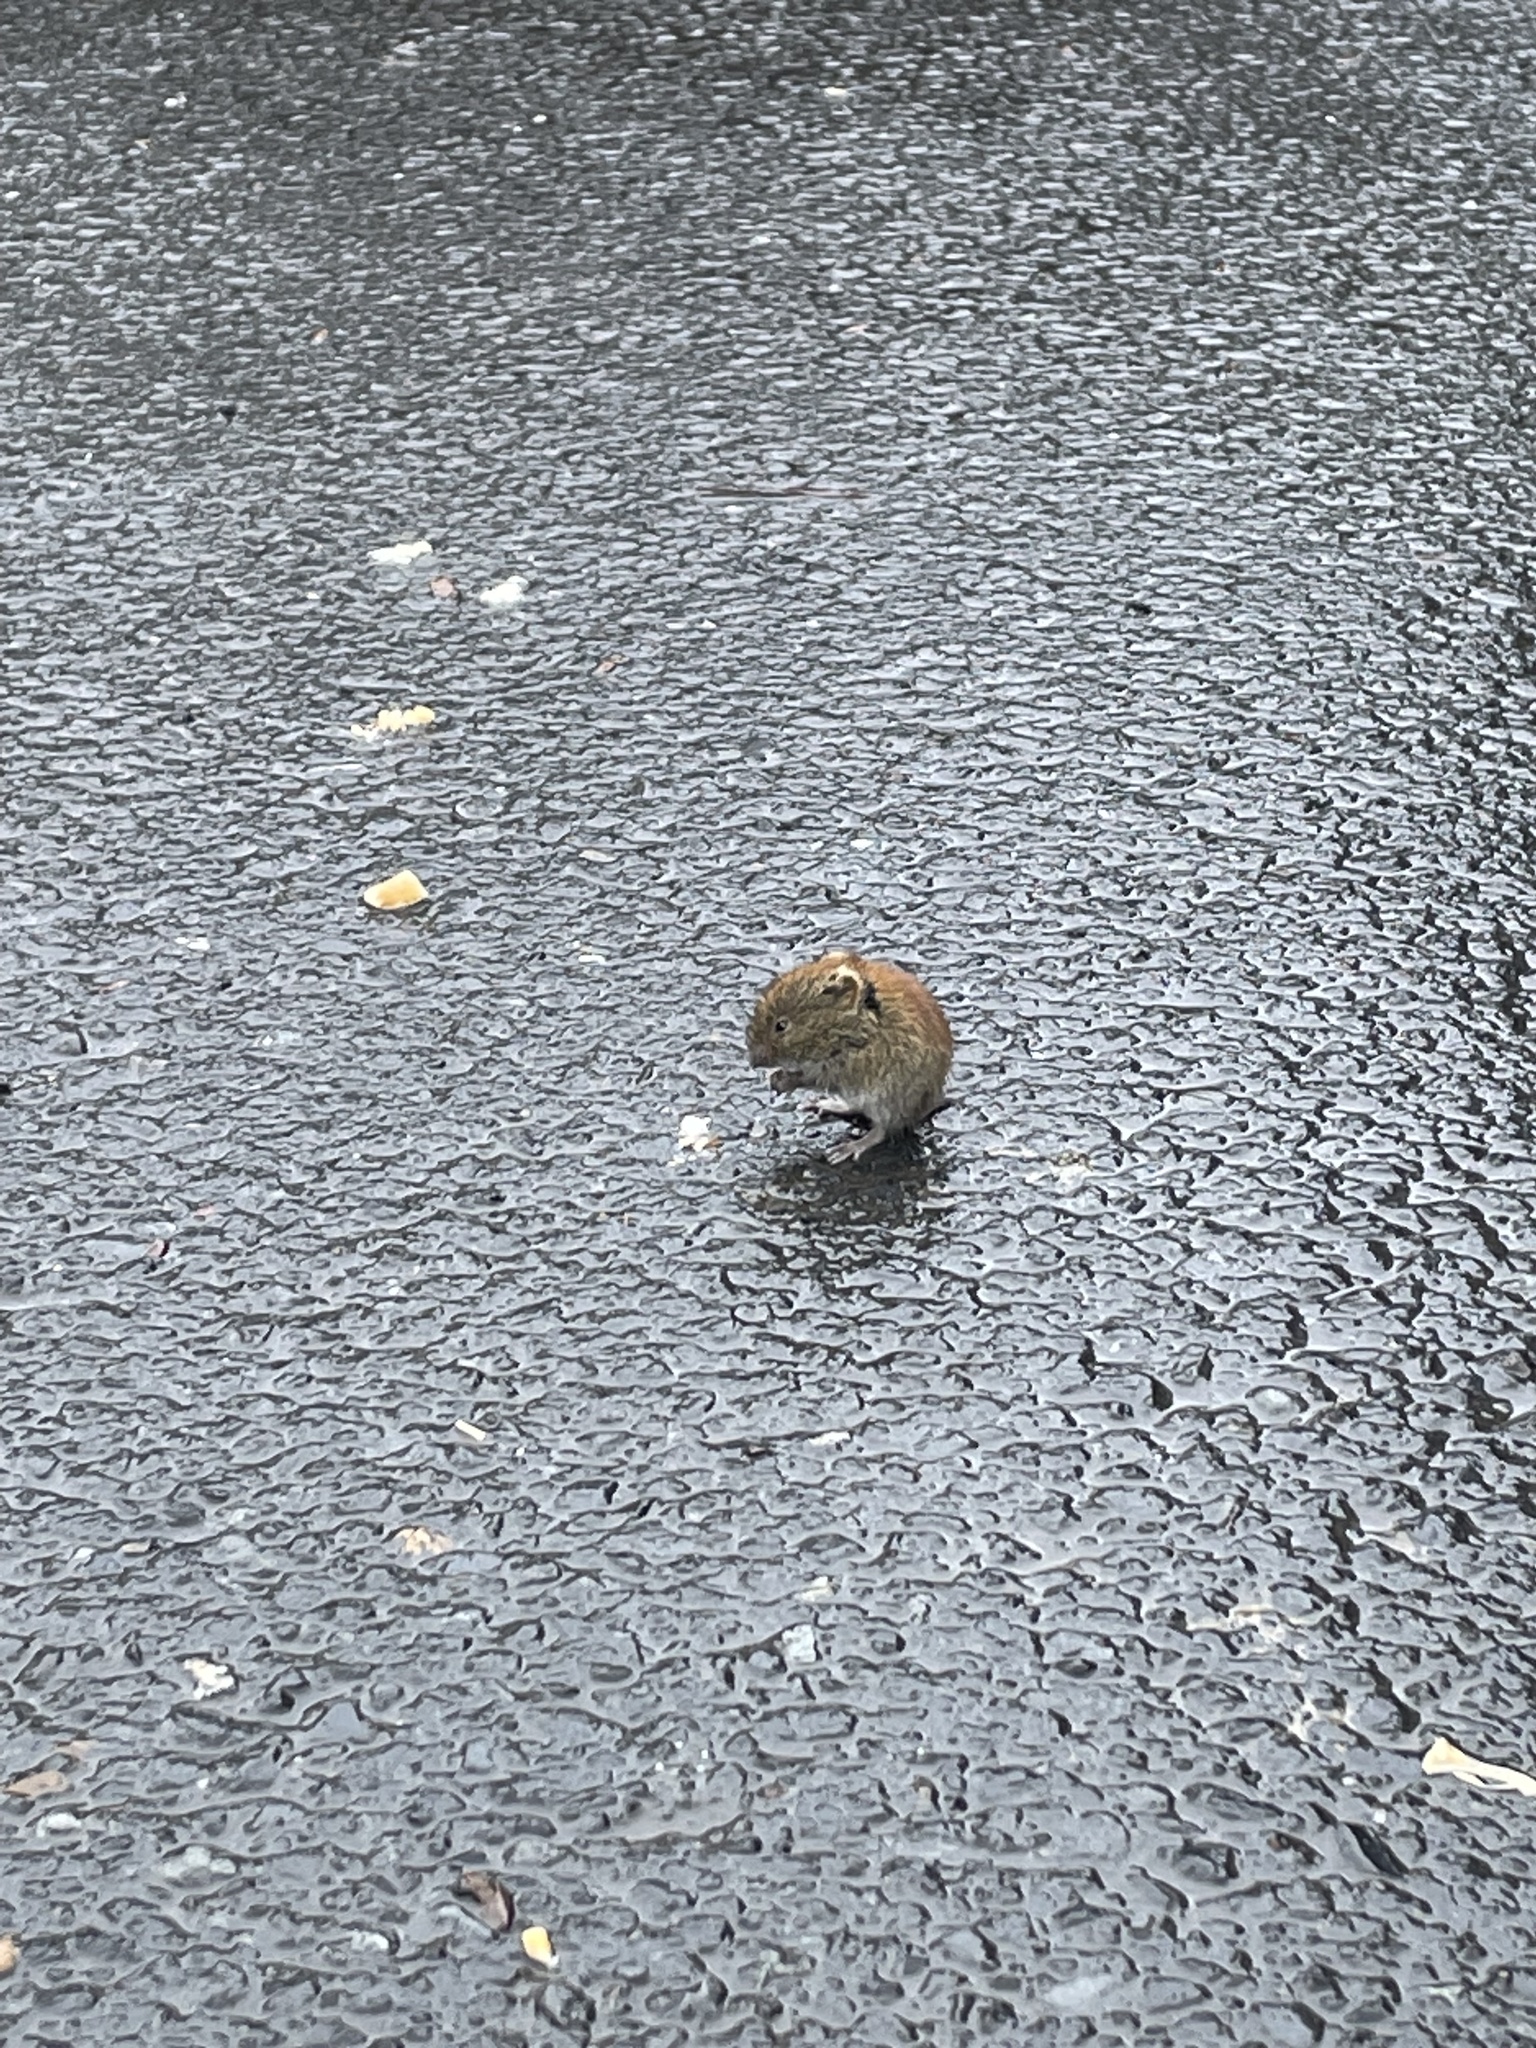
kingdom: Animalia
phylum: Chordata
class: Mammalia
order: Rodentia
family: Cricetidae
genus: Myodes
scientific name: Myodes rutilus
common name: Northern red-backed vole
